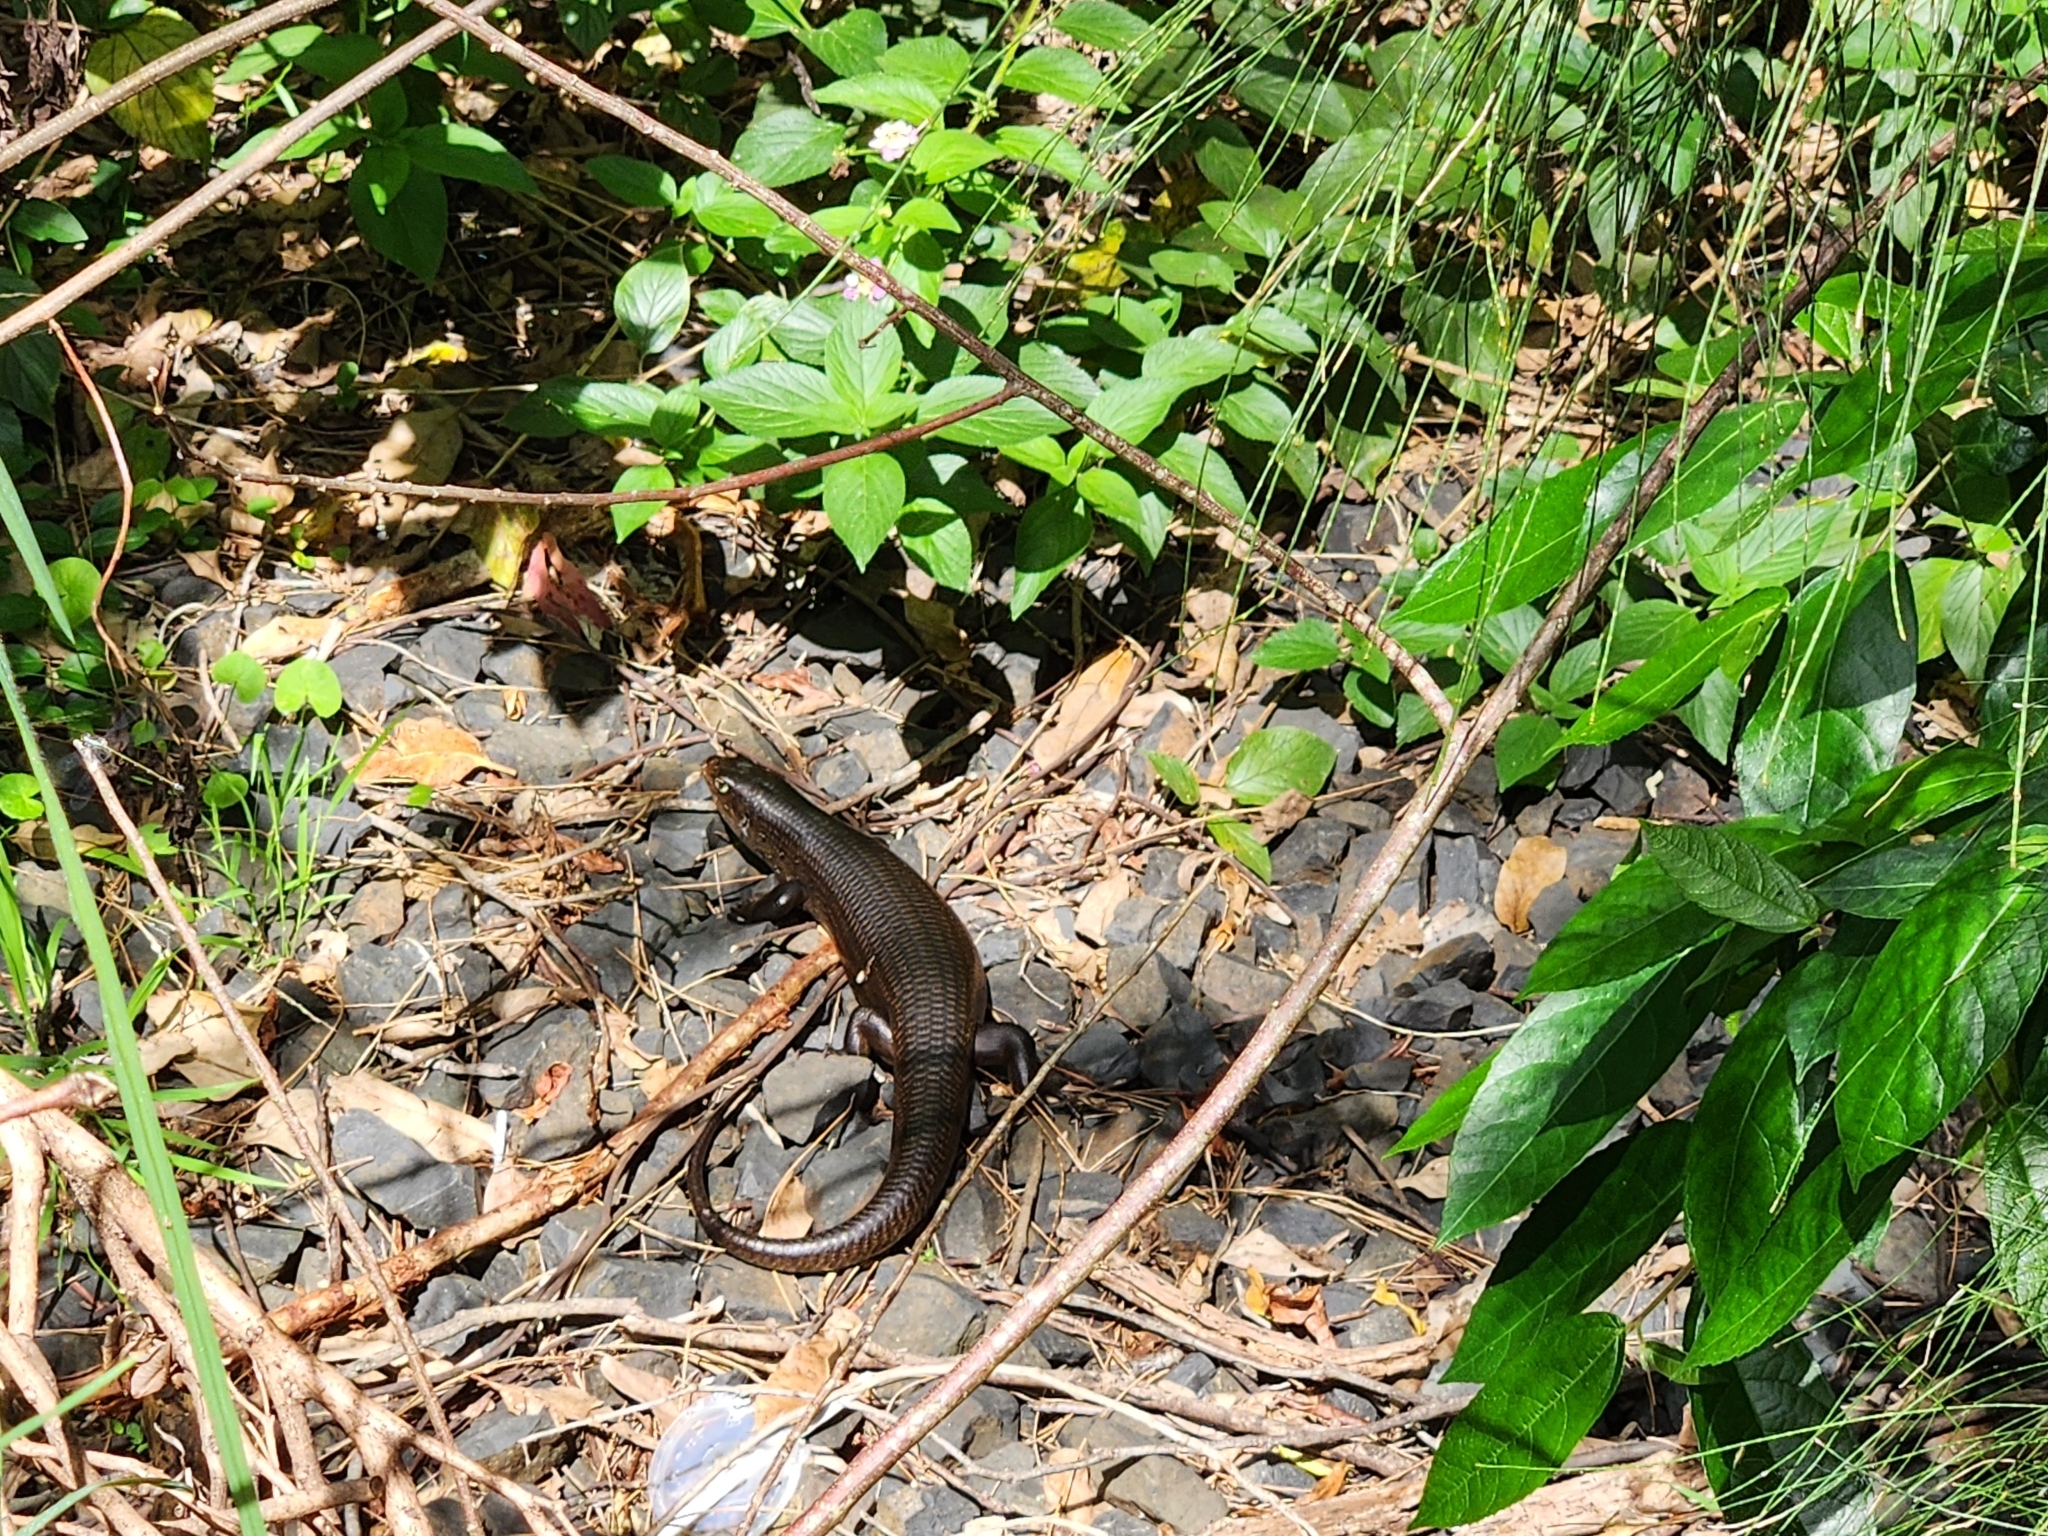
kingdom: Animalia
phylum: Chordata
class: Squamata
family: Scincidae
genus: Bellatorias
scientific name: Bellatorias major
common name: Land mullet
